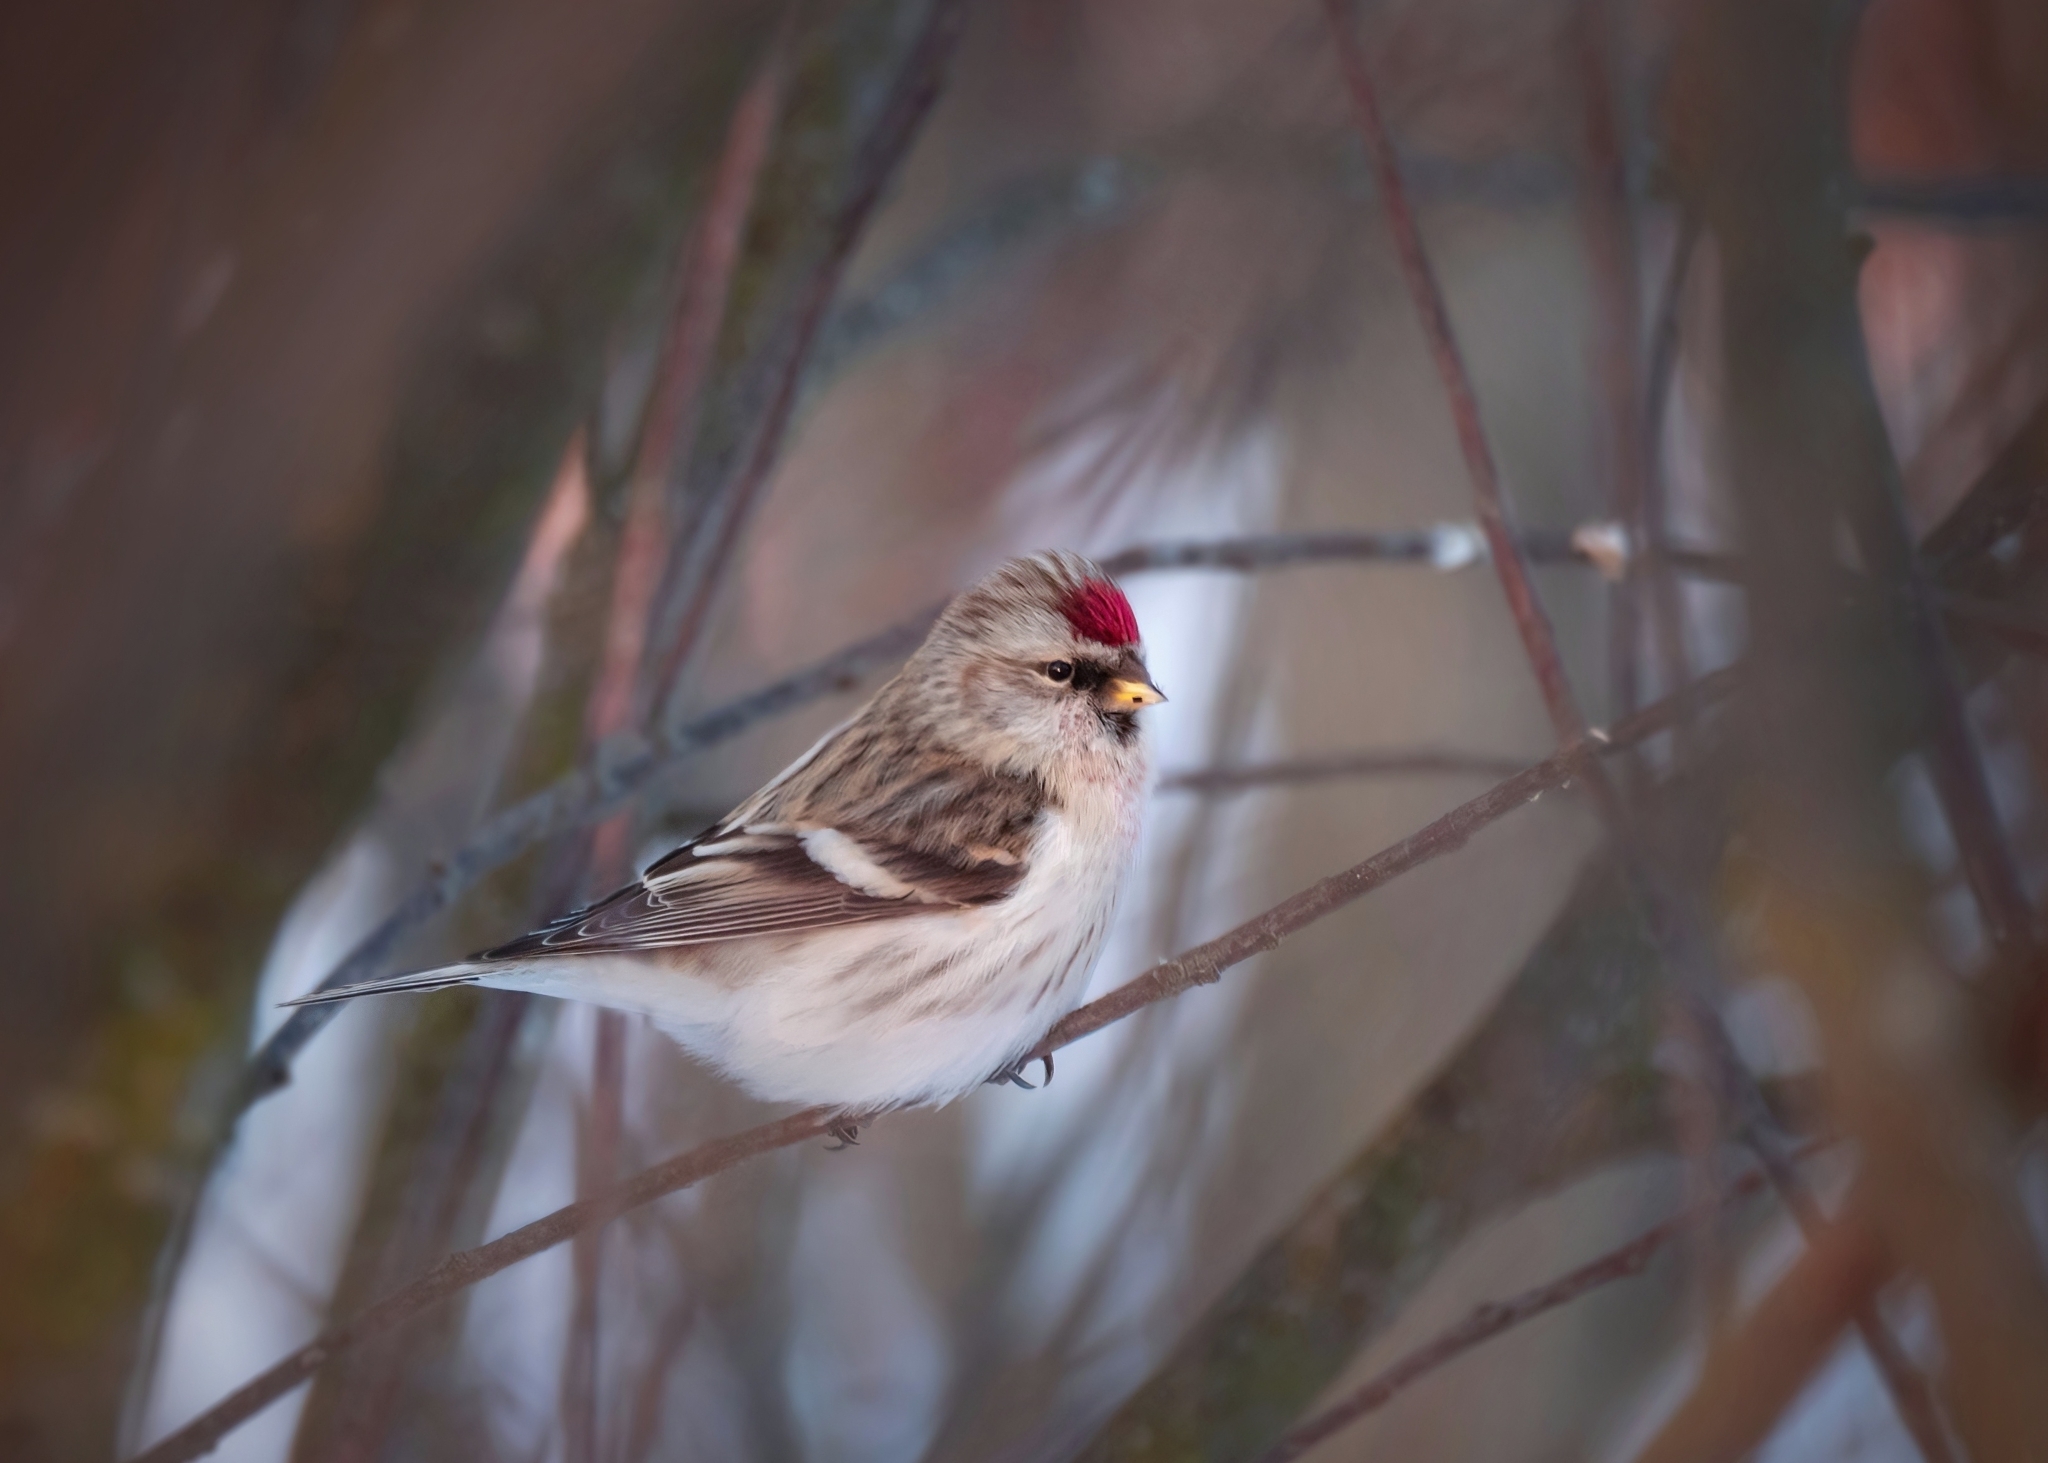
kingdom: Animalia
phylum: Chordata
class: Aves
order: Passeriformes
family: Fringillidae
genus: Acanthis
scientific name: Acanthis hornemanni
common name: Arctic redpoll
